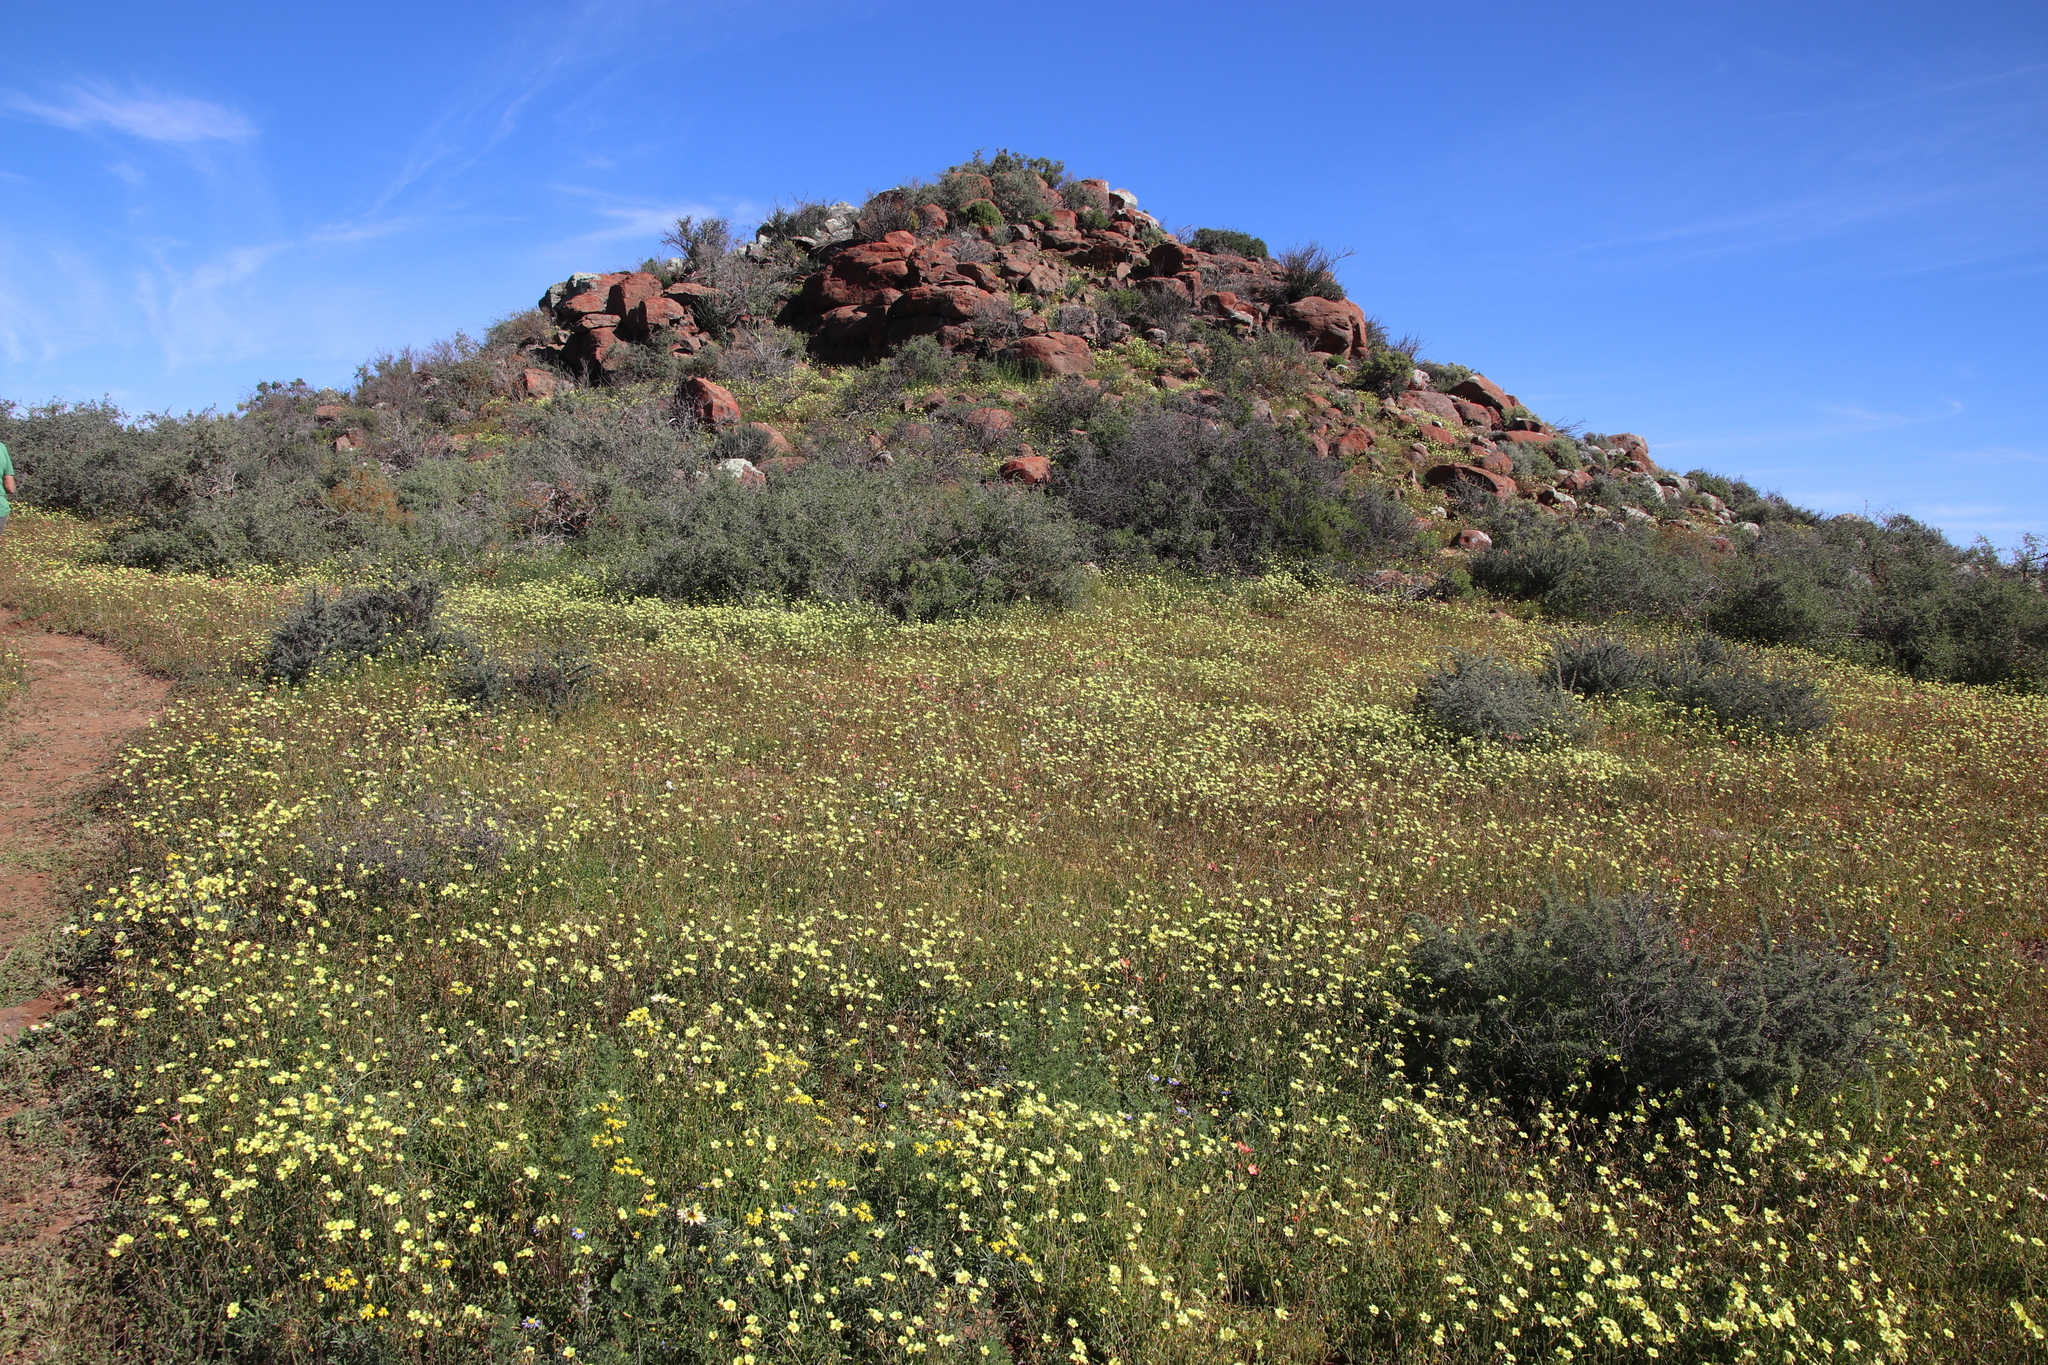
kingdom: Plantae
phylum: Tracheophyta
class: Magnoliopsida
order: Oxalidales
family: Oxalidaceae
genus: Oxalis
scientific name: Oxalis pes-caprae
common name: Bermuda-buttercup
